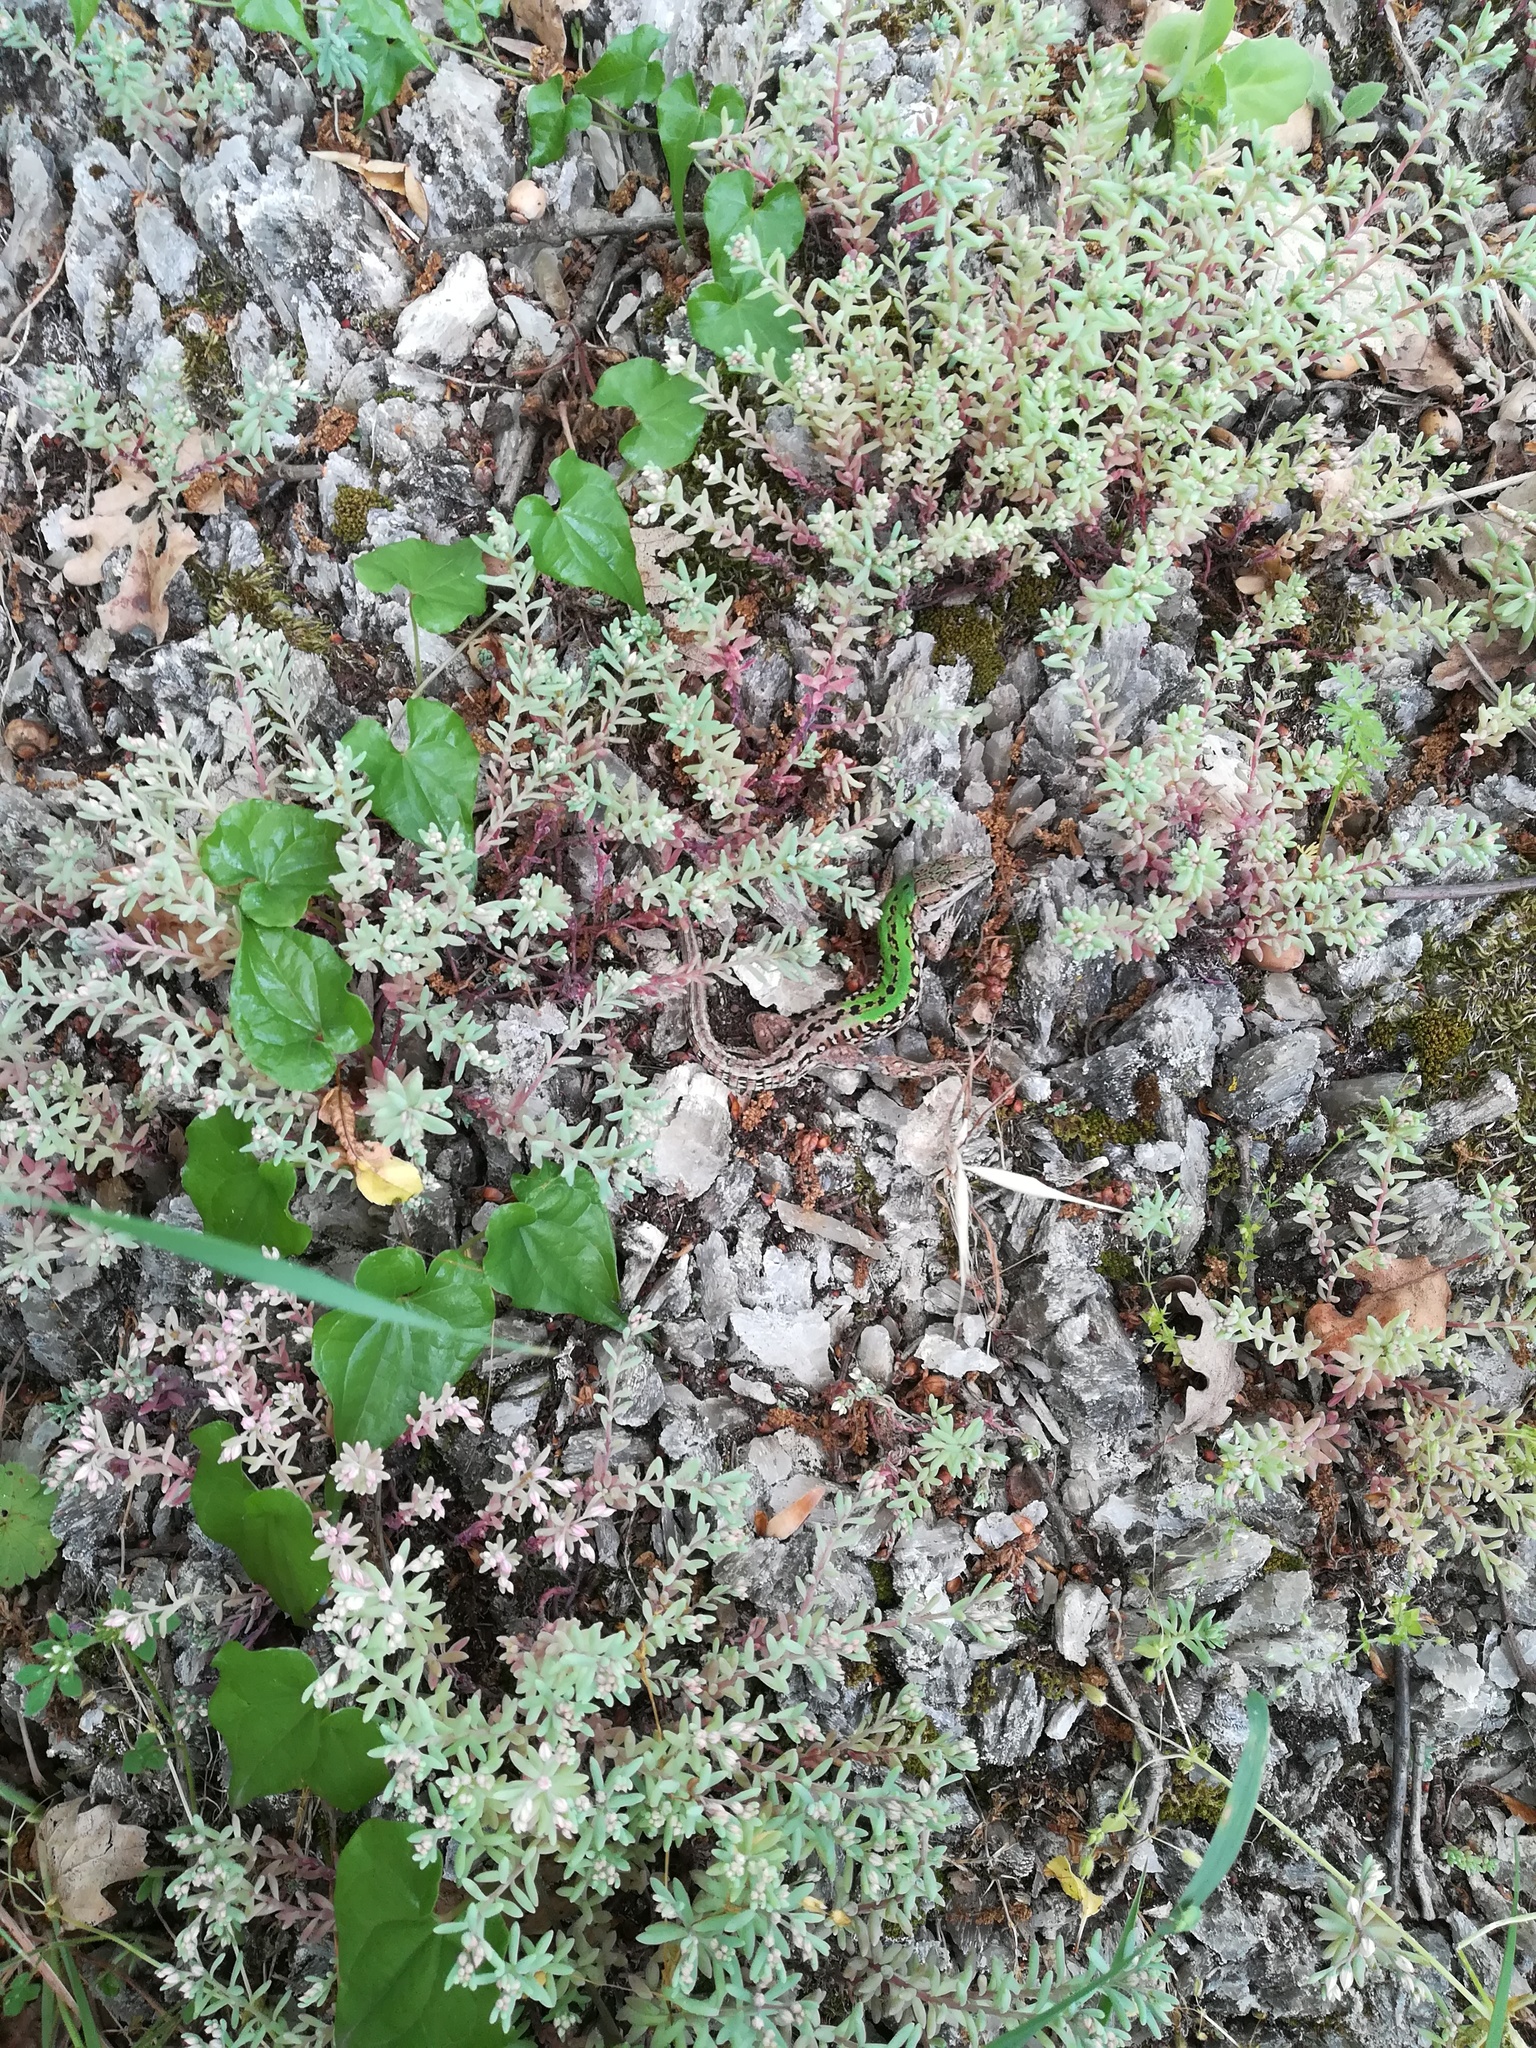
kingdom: Animalia
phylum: Chordata
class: Squamata
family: Lacertidae
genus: Podarcis
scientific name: Podarcis siculus
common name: Italian wall lizard
